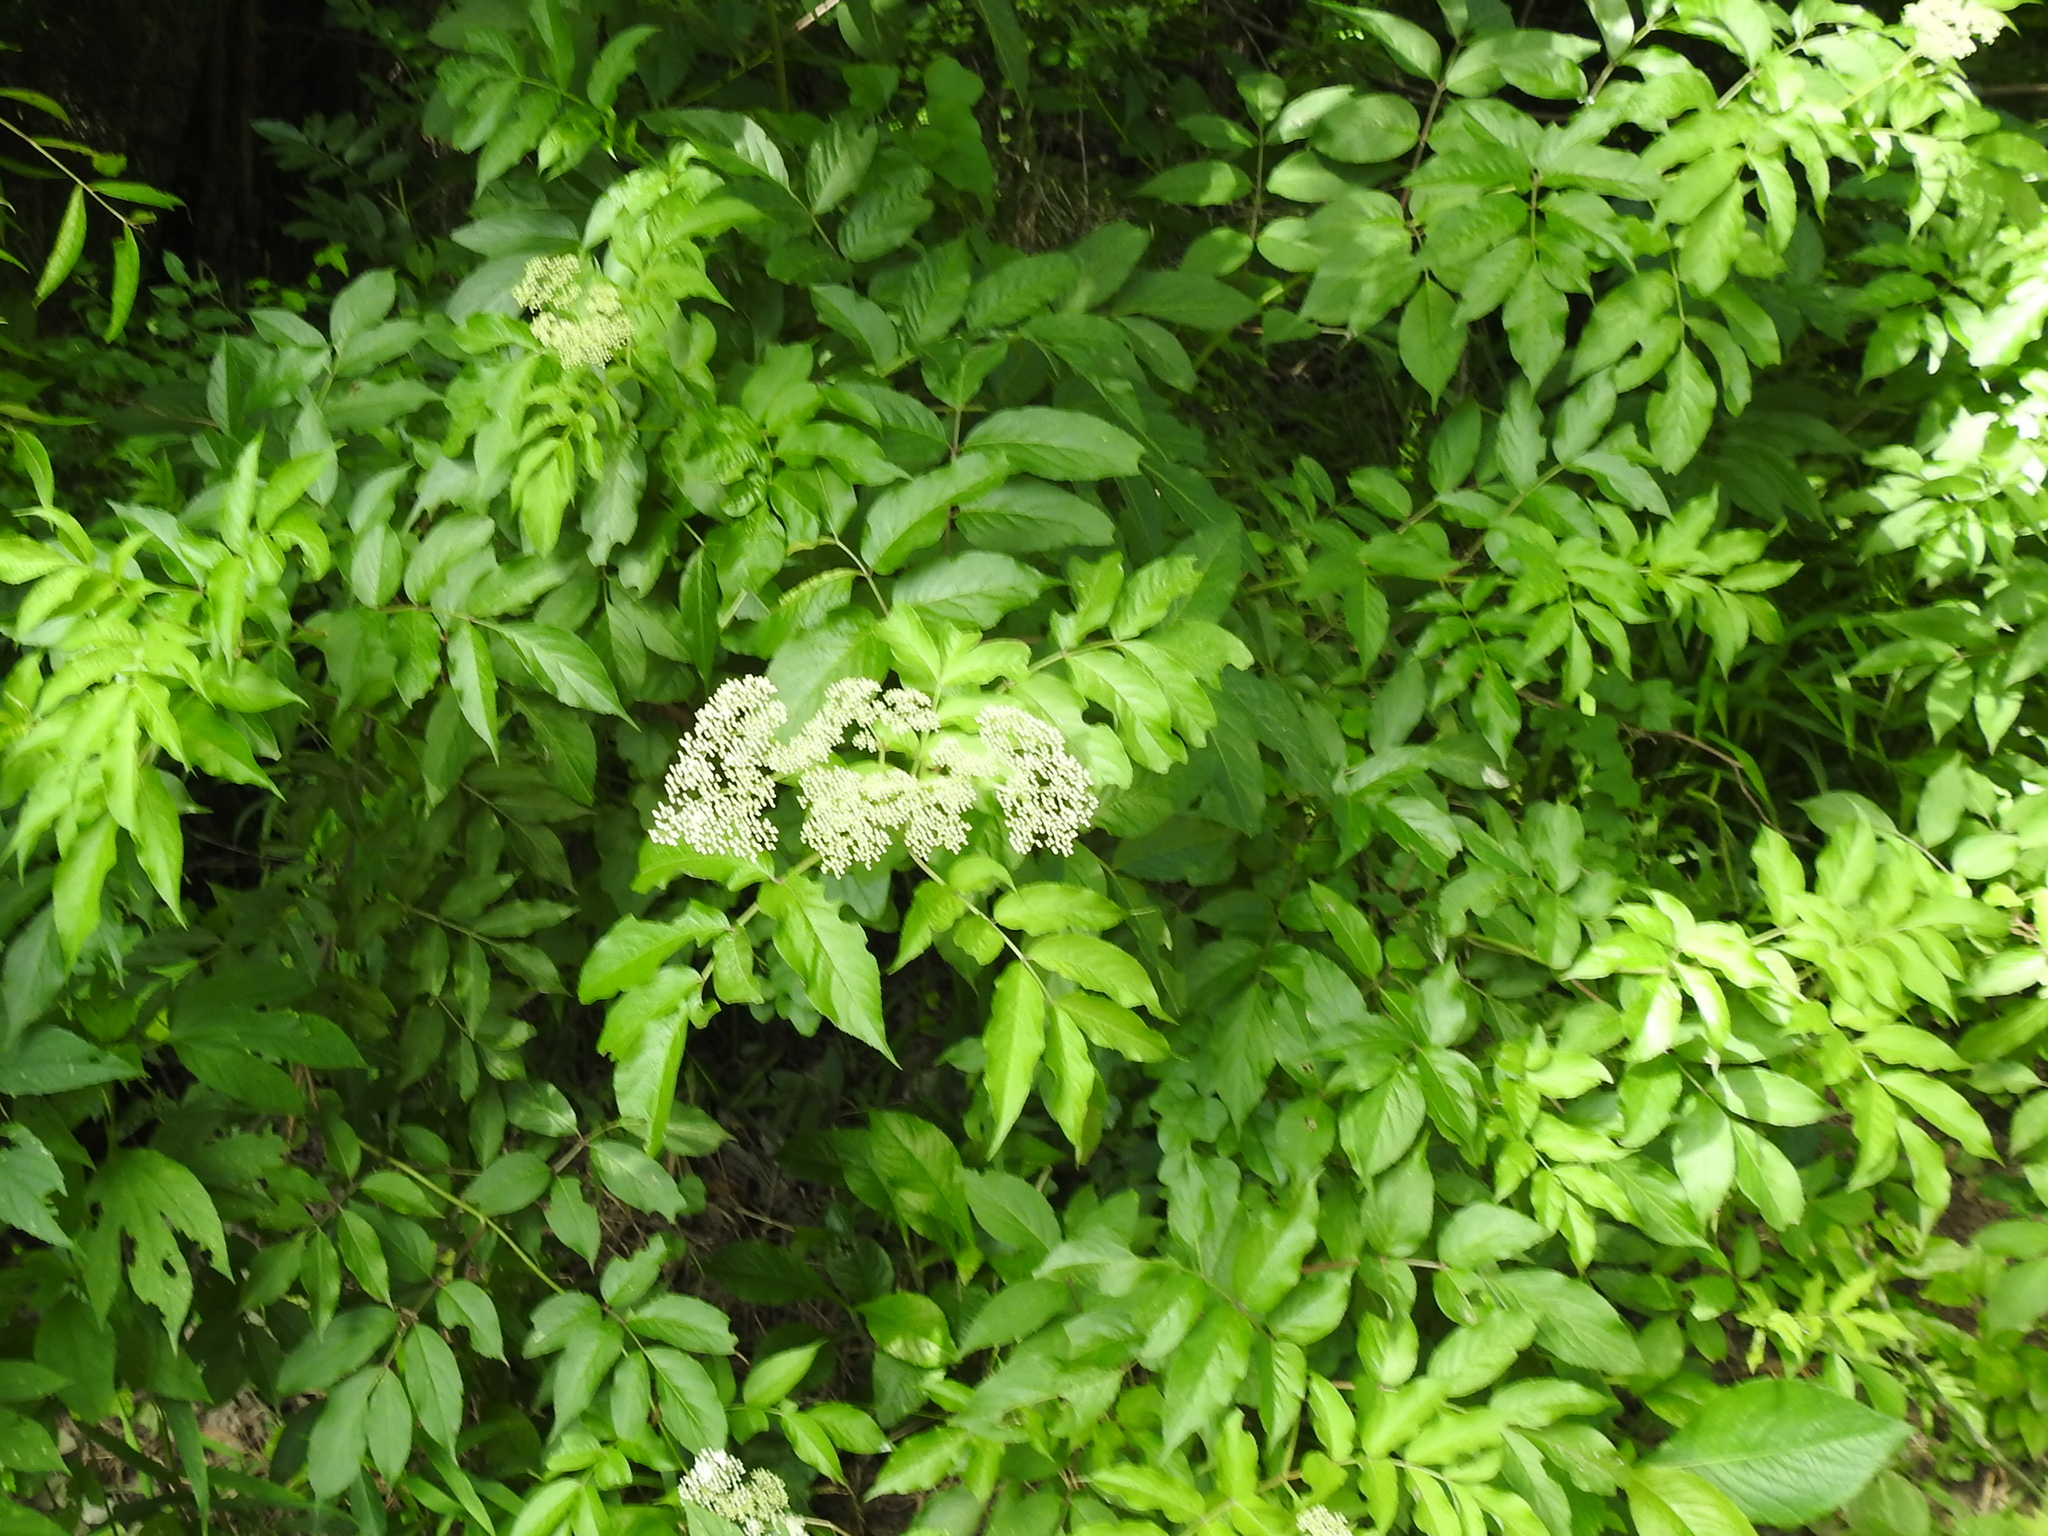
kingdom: Plantae
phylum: Tracheophyta
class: Magnoliopsida
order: Dipsacales
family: Viburnaceae
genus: Sambucus
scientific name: Sambucus canadensis
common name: American elder
